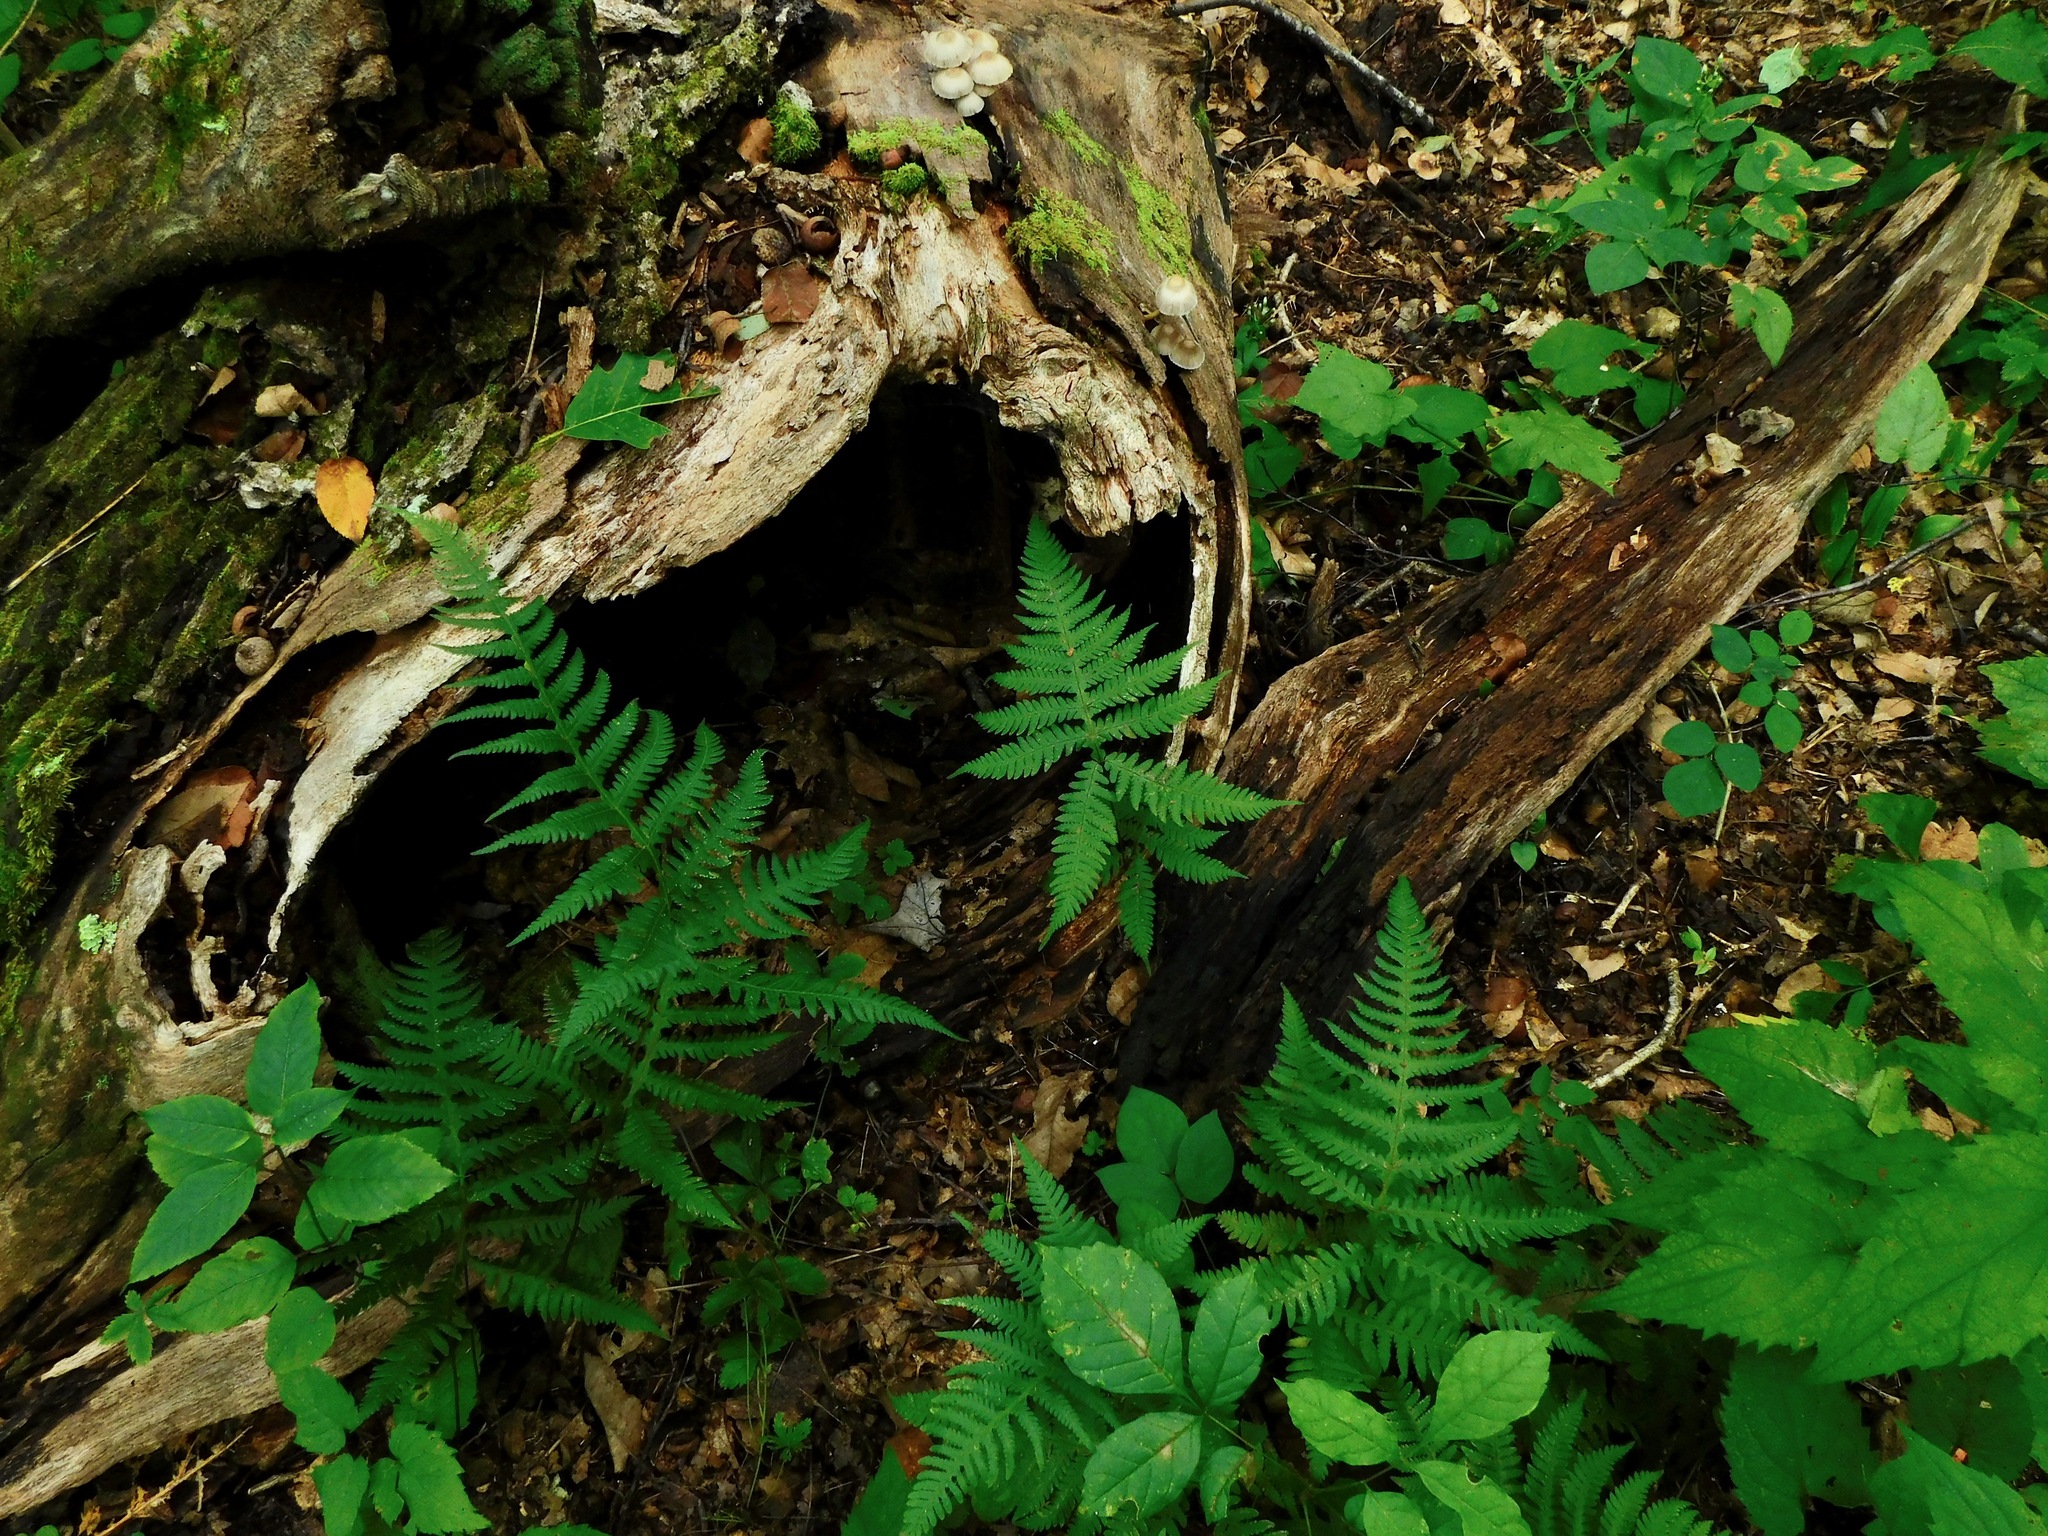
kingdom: Plantae
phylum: Tracheophyta
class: Polypodiopsida
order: Polypodiales
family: Thelypteridaceae
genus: Phegopteris
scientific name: Phegopteris hexagonoptera
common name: Broad beech fern
